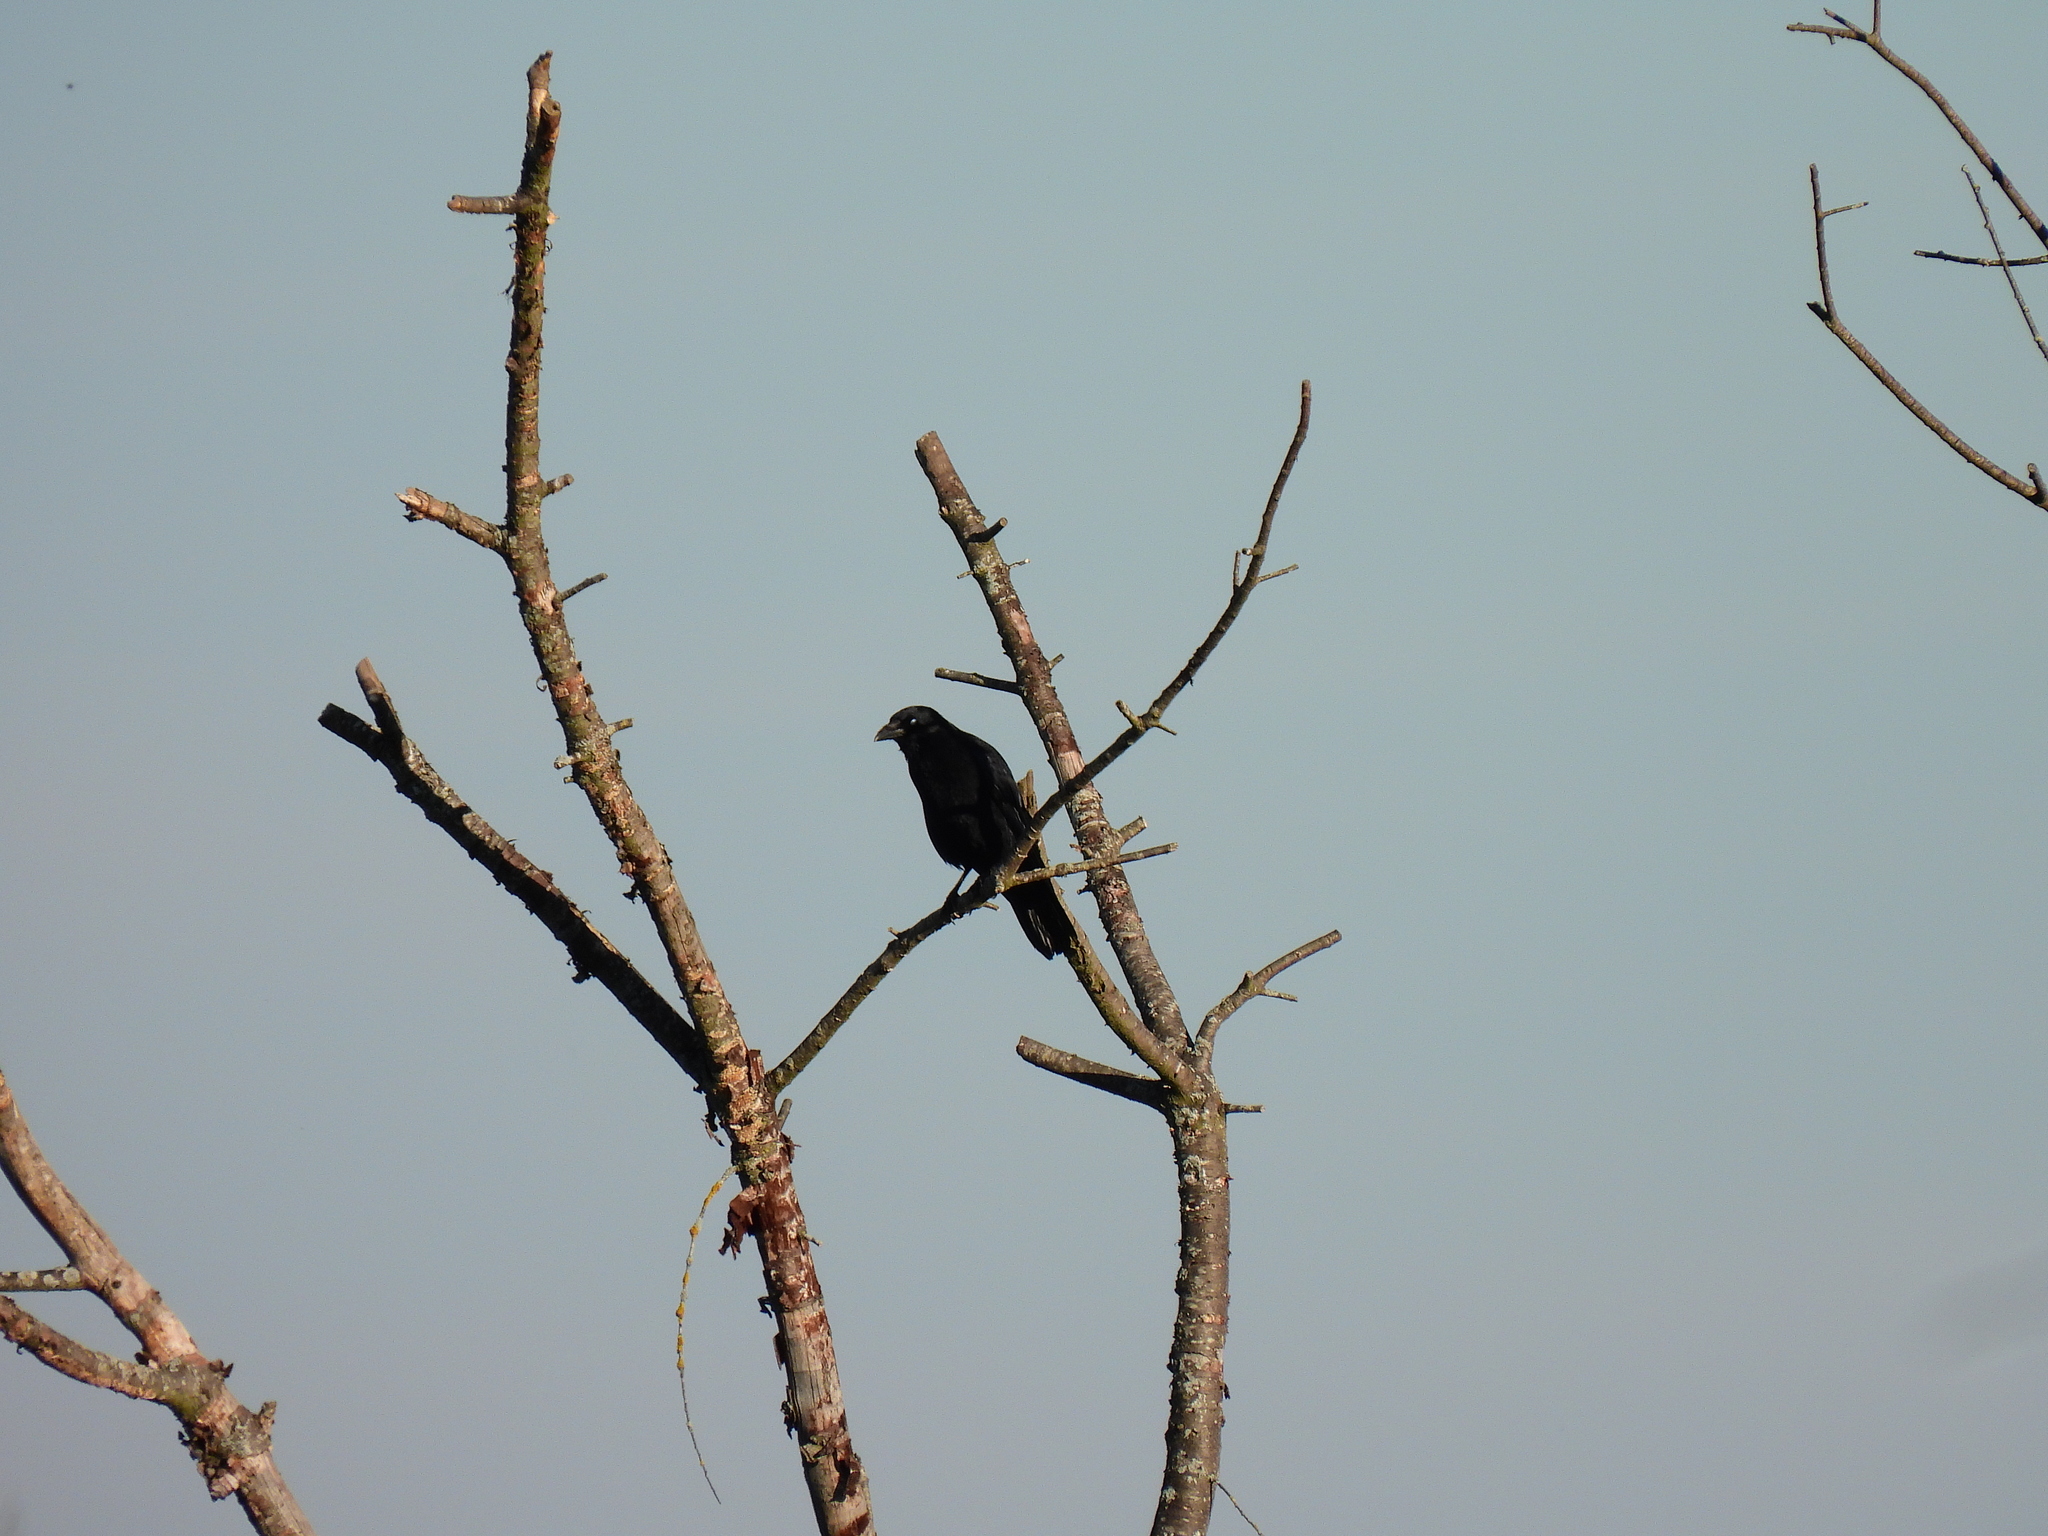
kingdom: Animalia
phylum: Chordata
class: Aves
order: Passeriformes
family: Corvidae
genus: Corvus
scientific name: Corvus corone
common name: Carrion crow
